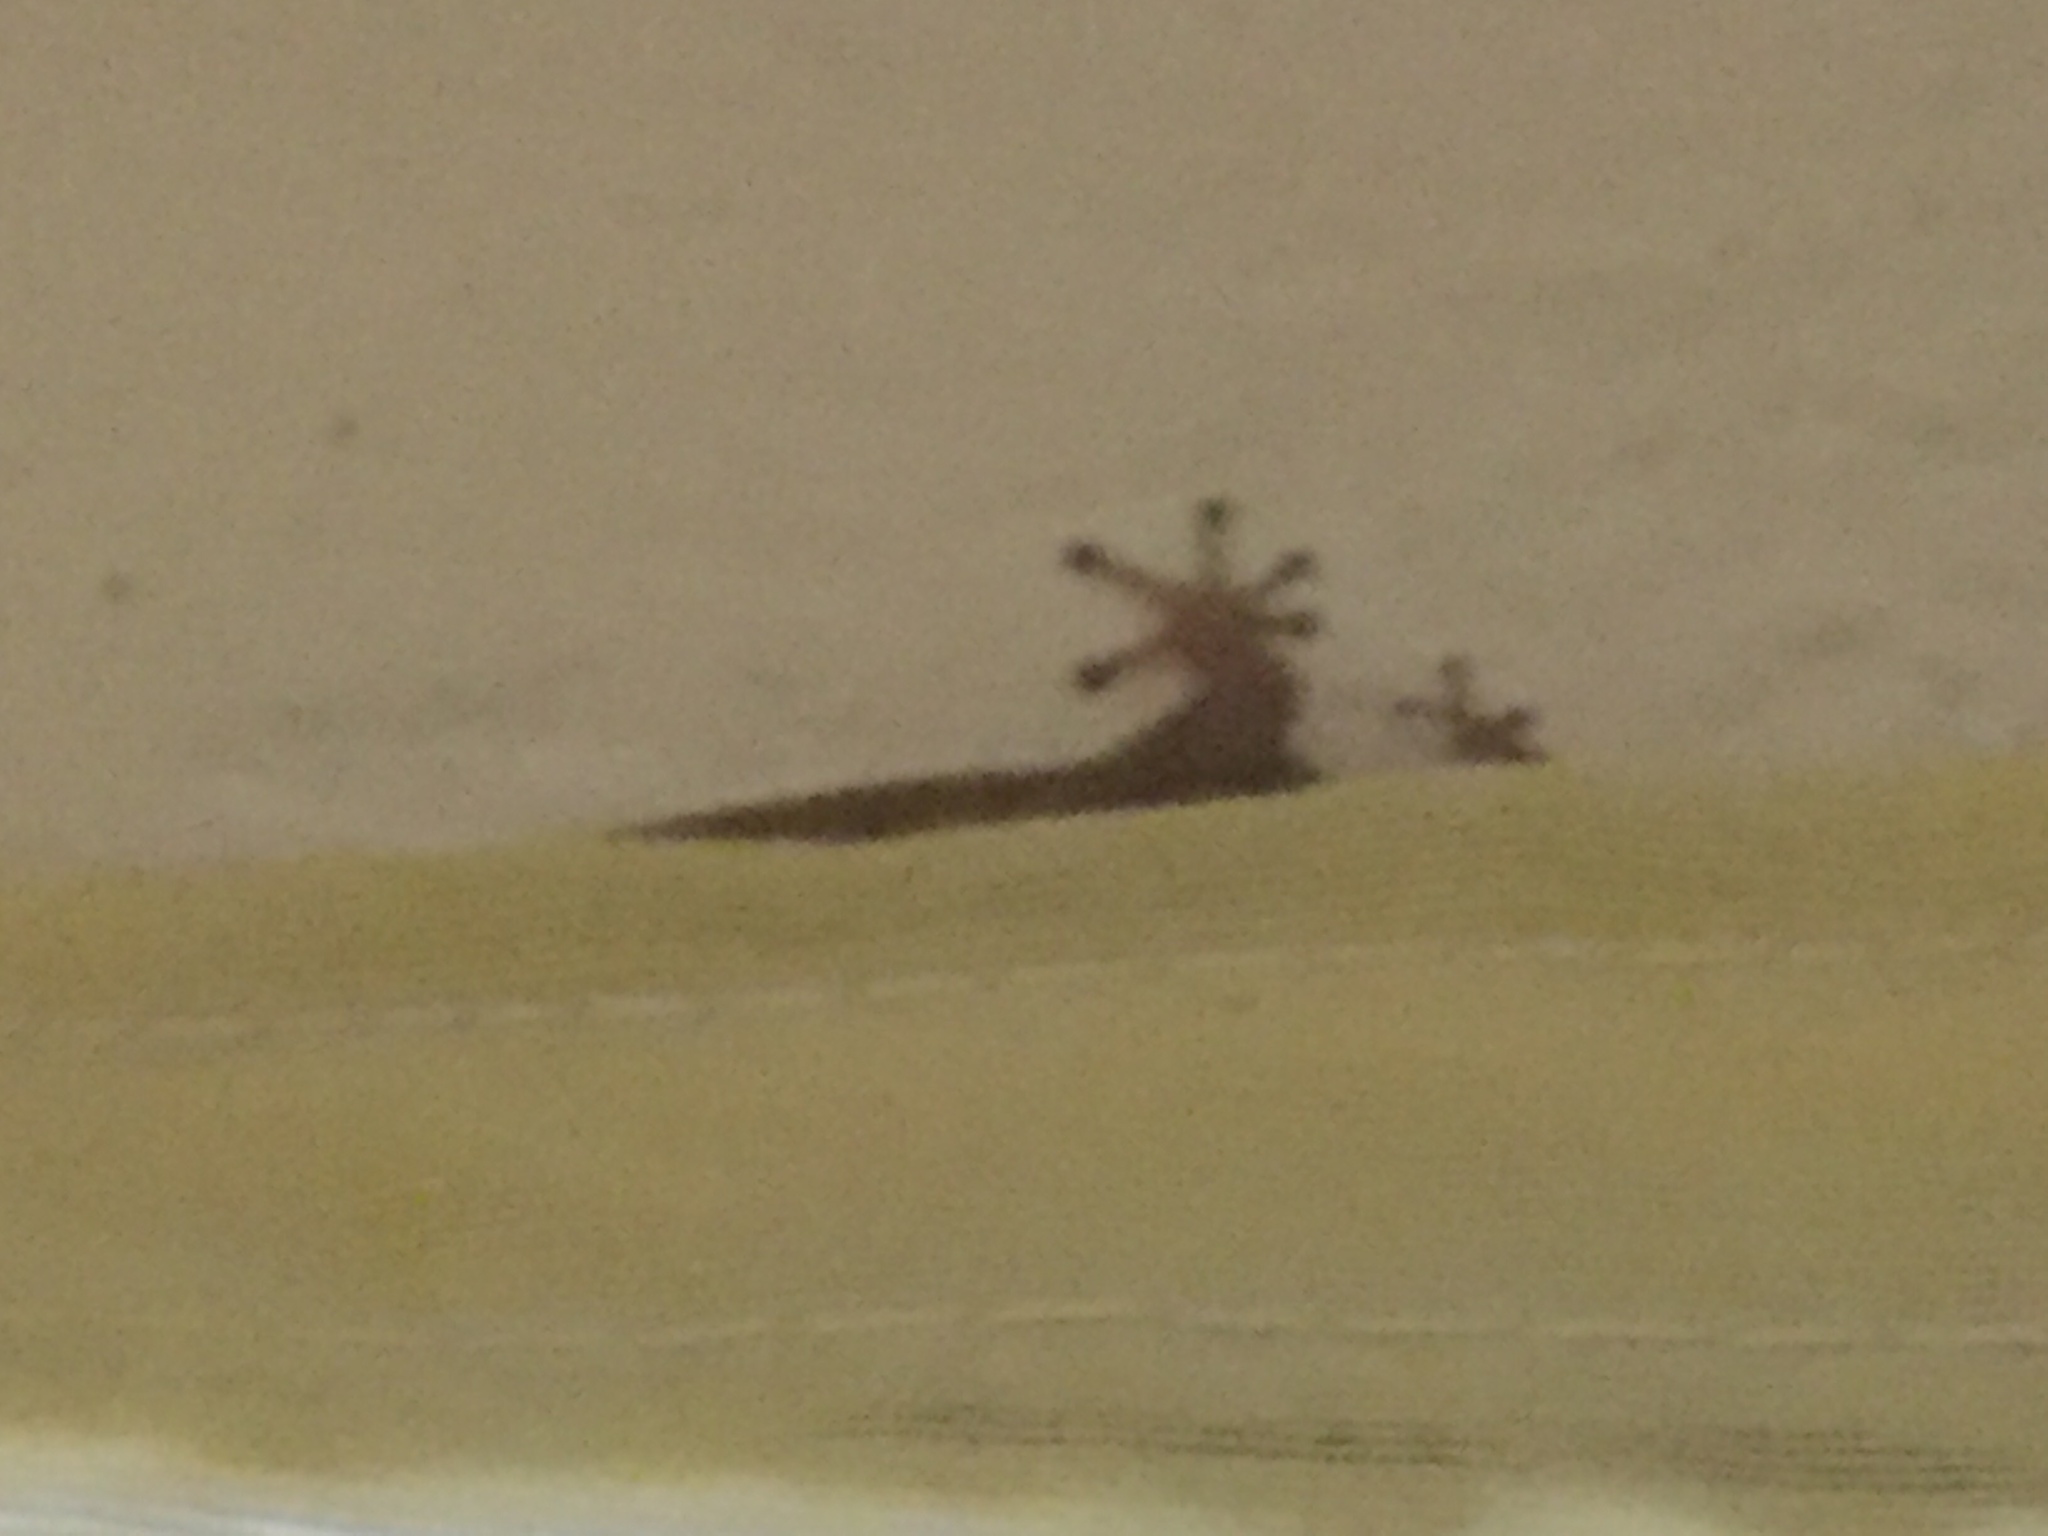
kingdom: Animalia
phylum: Chordata
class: Squamata
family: Sphaerodactylidae
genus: Sphaerodactylus
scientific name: Sphaerodactylus
